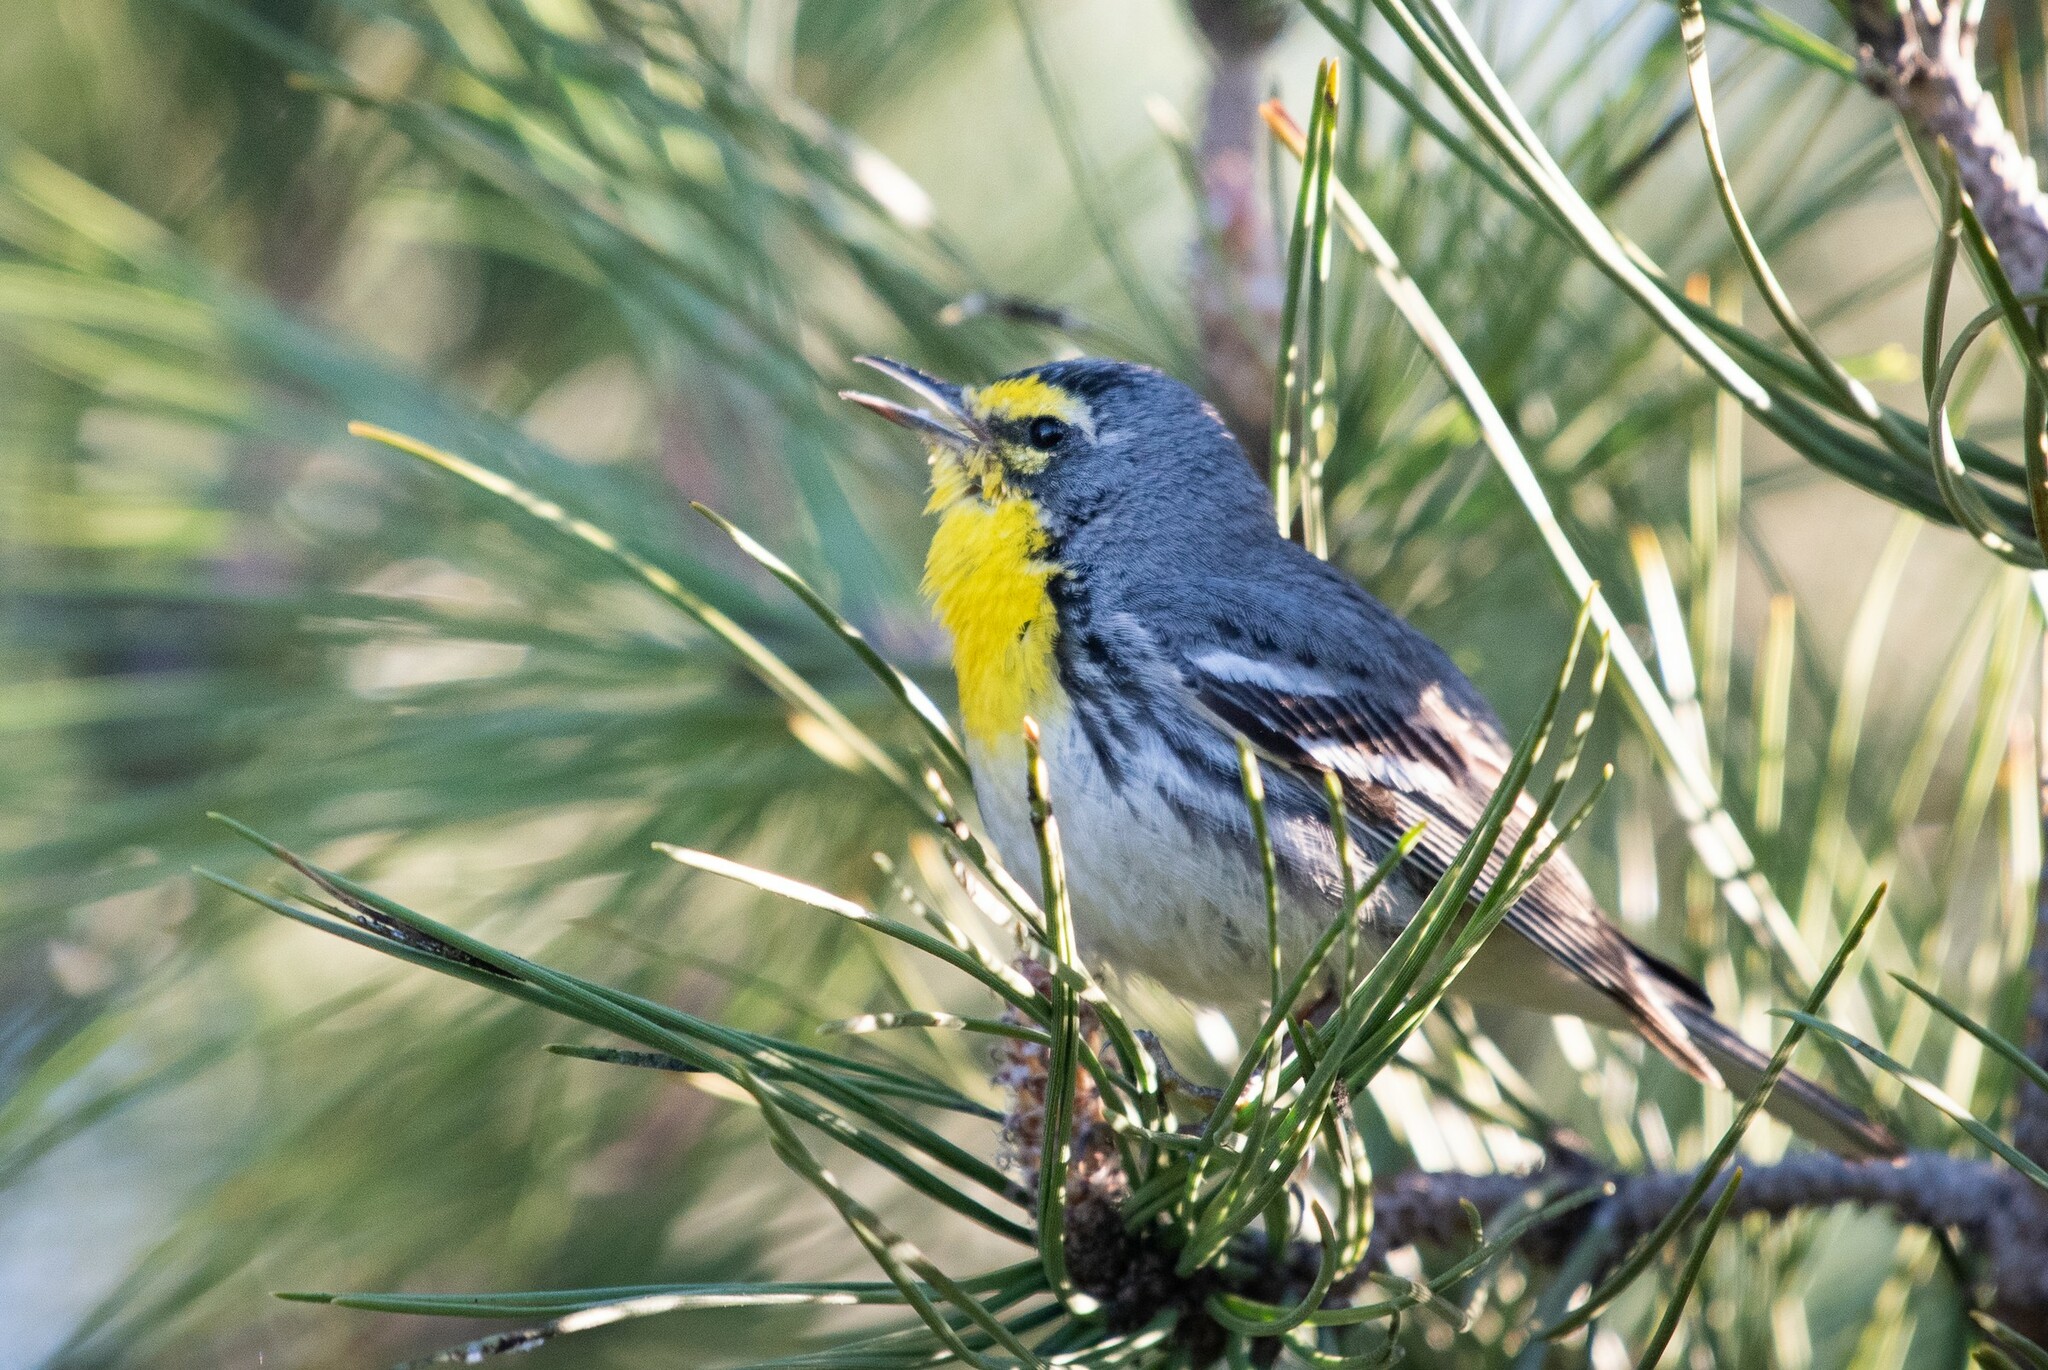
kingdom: Animalia
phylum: Chordata
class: Aves
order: Passeriformes
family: Parulidae
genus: Setophaga
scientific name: Setophaga graciae
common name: Grace's warbler
